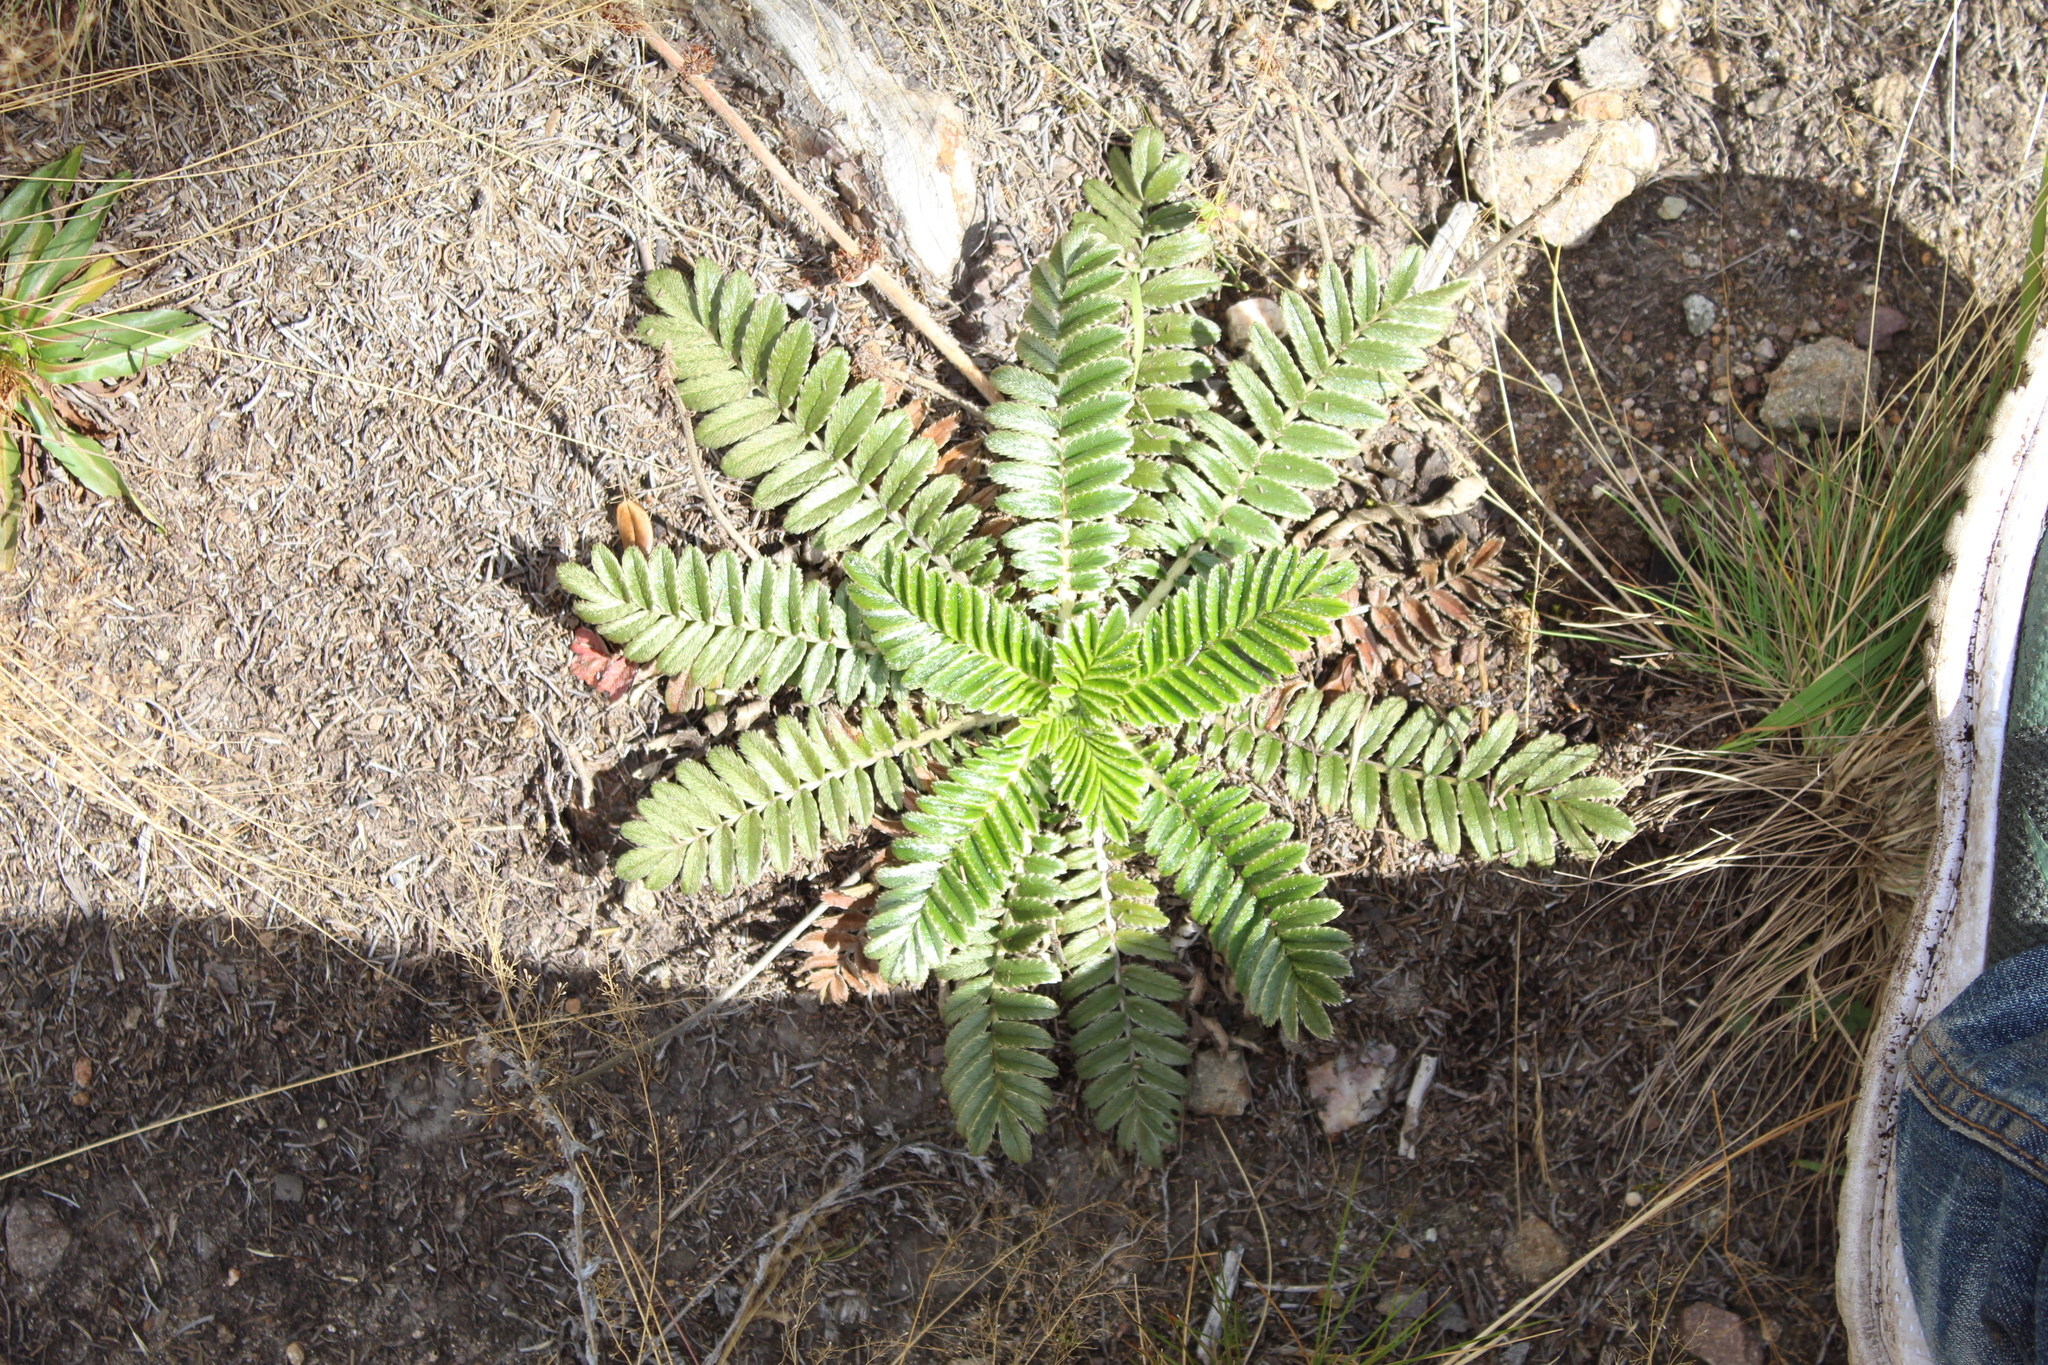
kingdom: Plantae
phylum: Tracheophyta
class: Magnoliopsida
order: Rosales
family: Rosaceae
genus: Acaena
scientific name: Acaena cylindristachya
